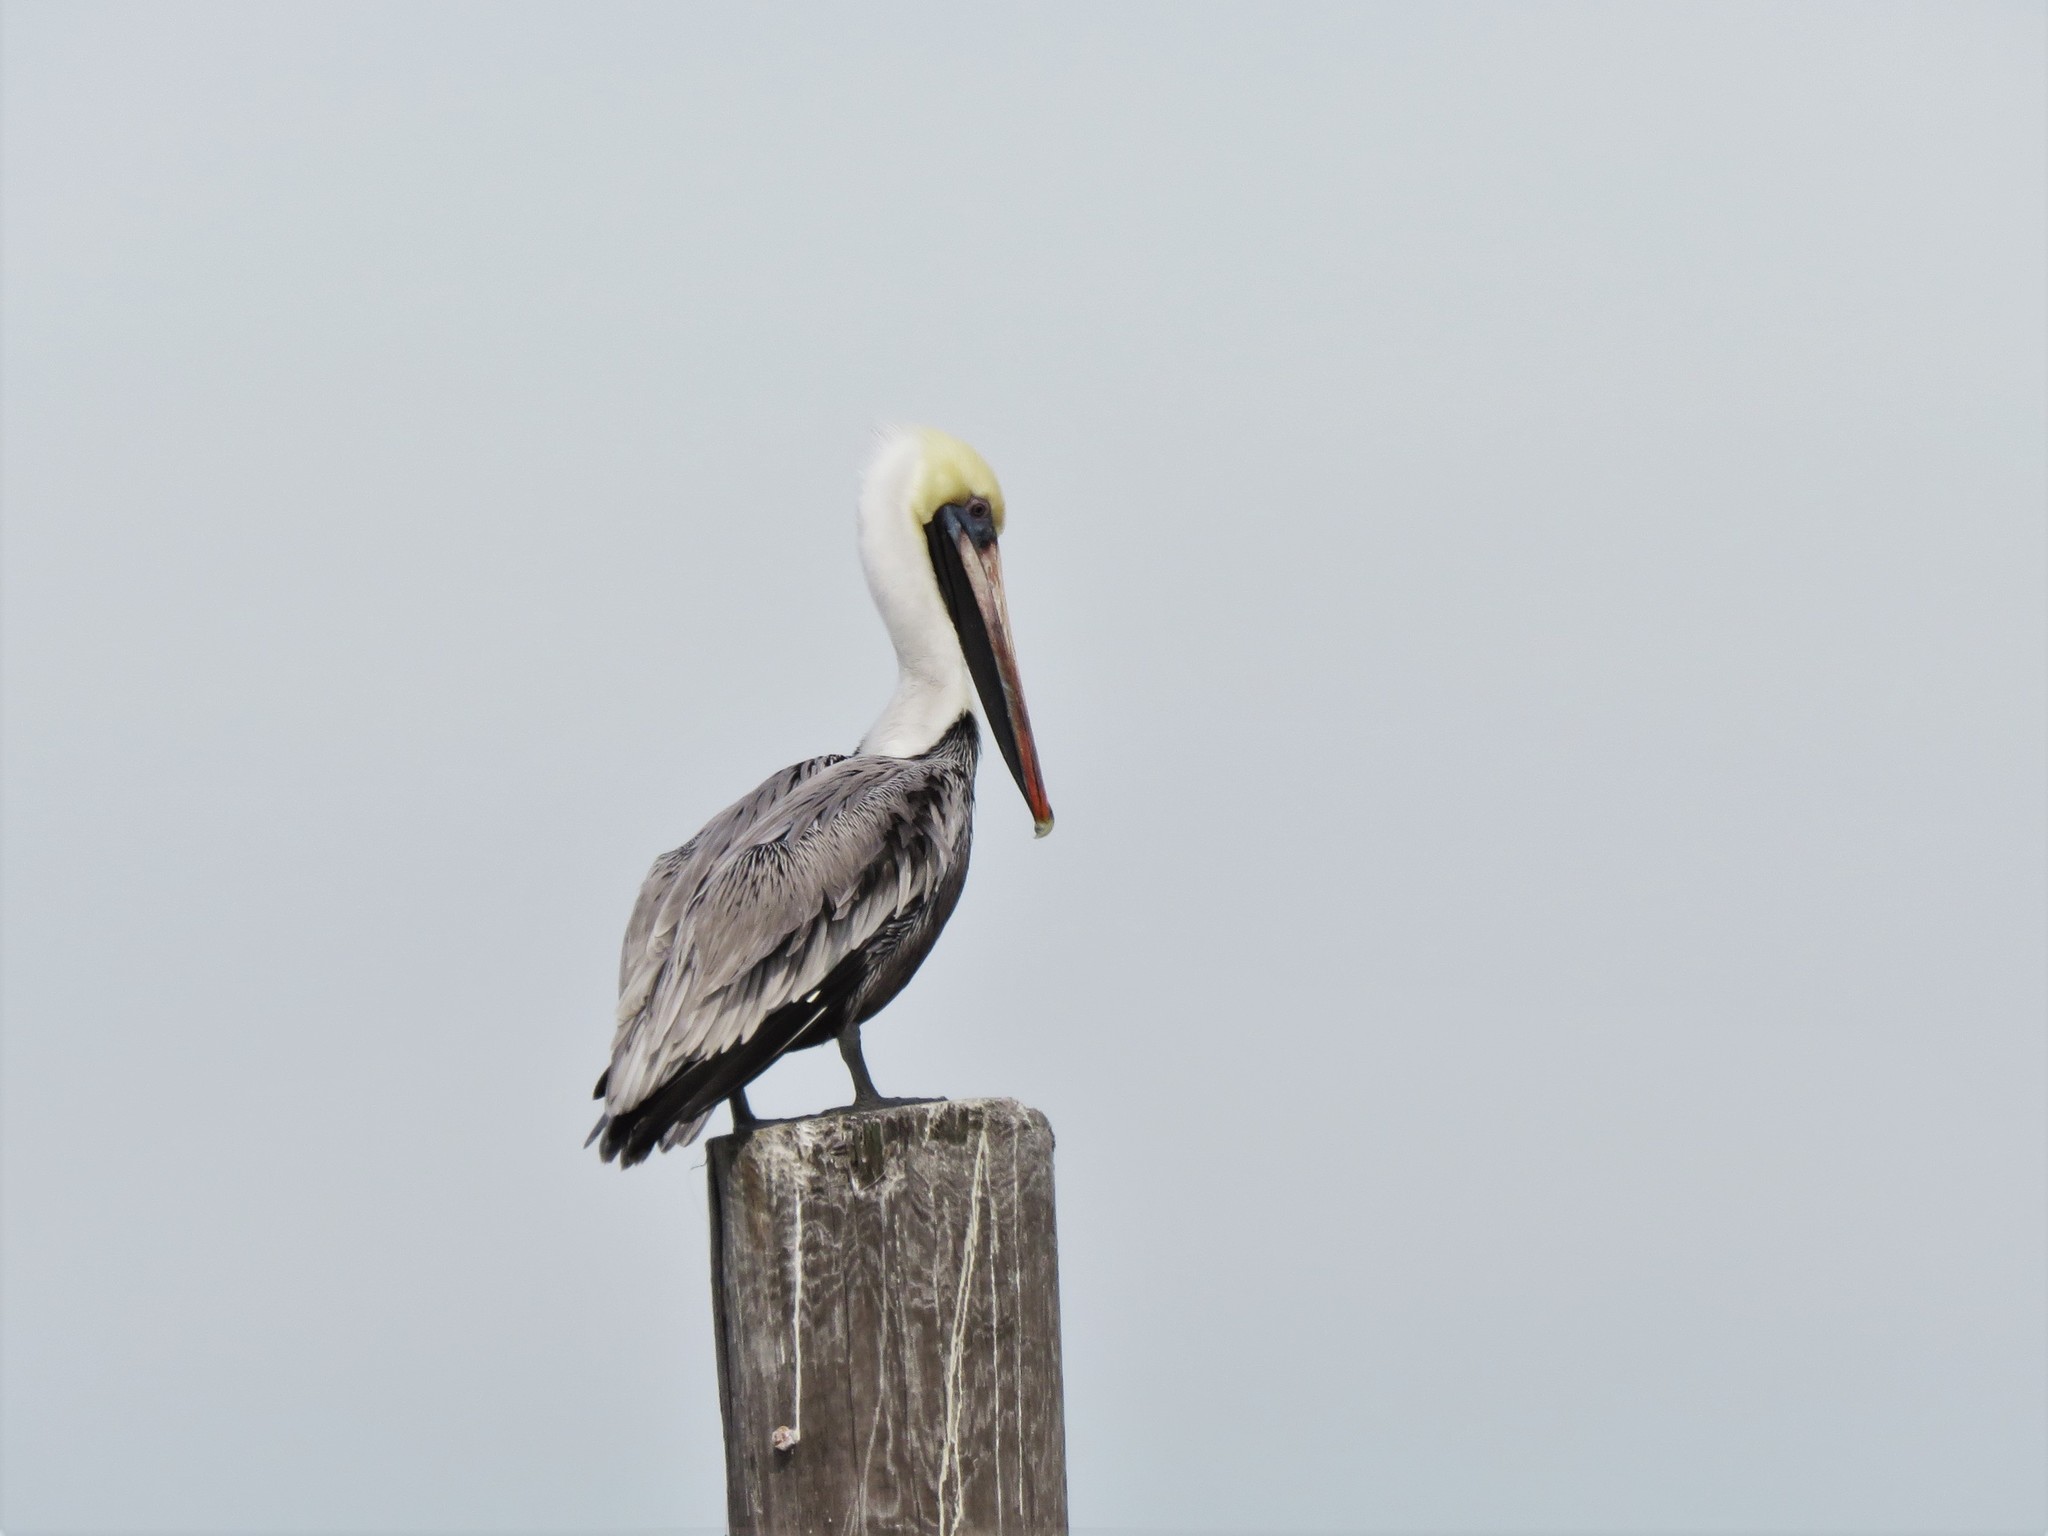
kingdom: Animalia
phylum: Chordata
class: Aves
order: Pelecaniformes
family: Pelecanidae
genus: Pelecanus
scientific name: Pelecanus occidentalis
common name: Brown pelican
